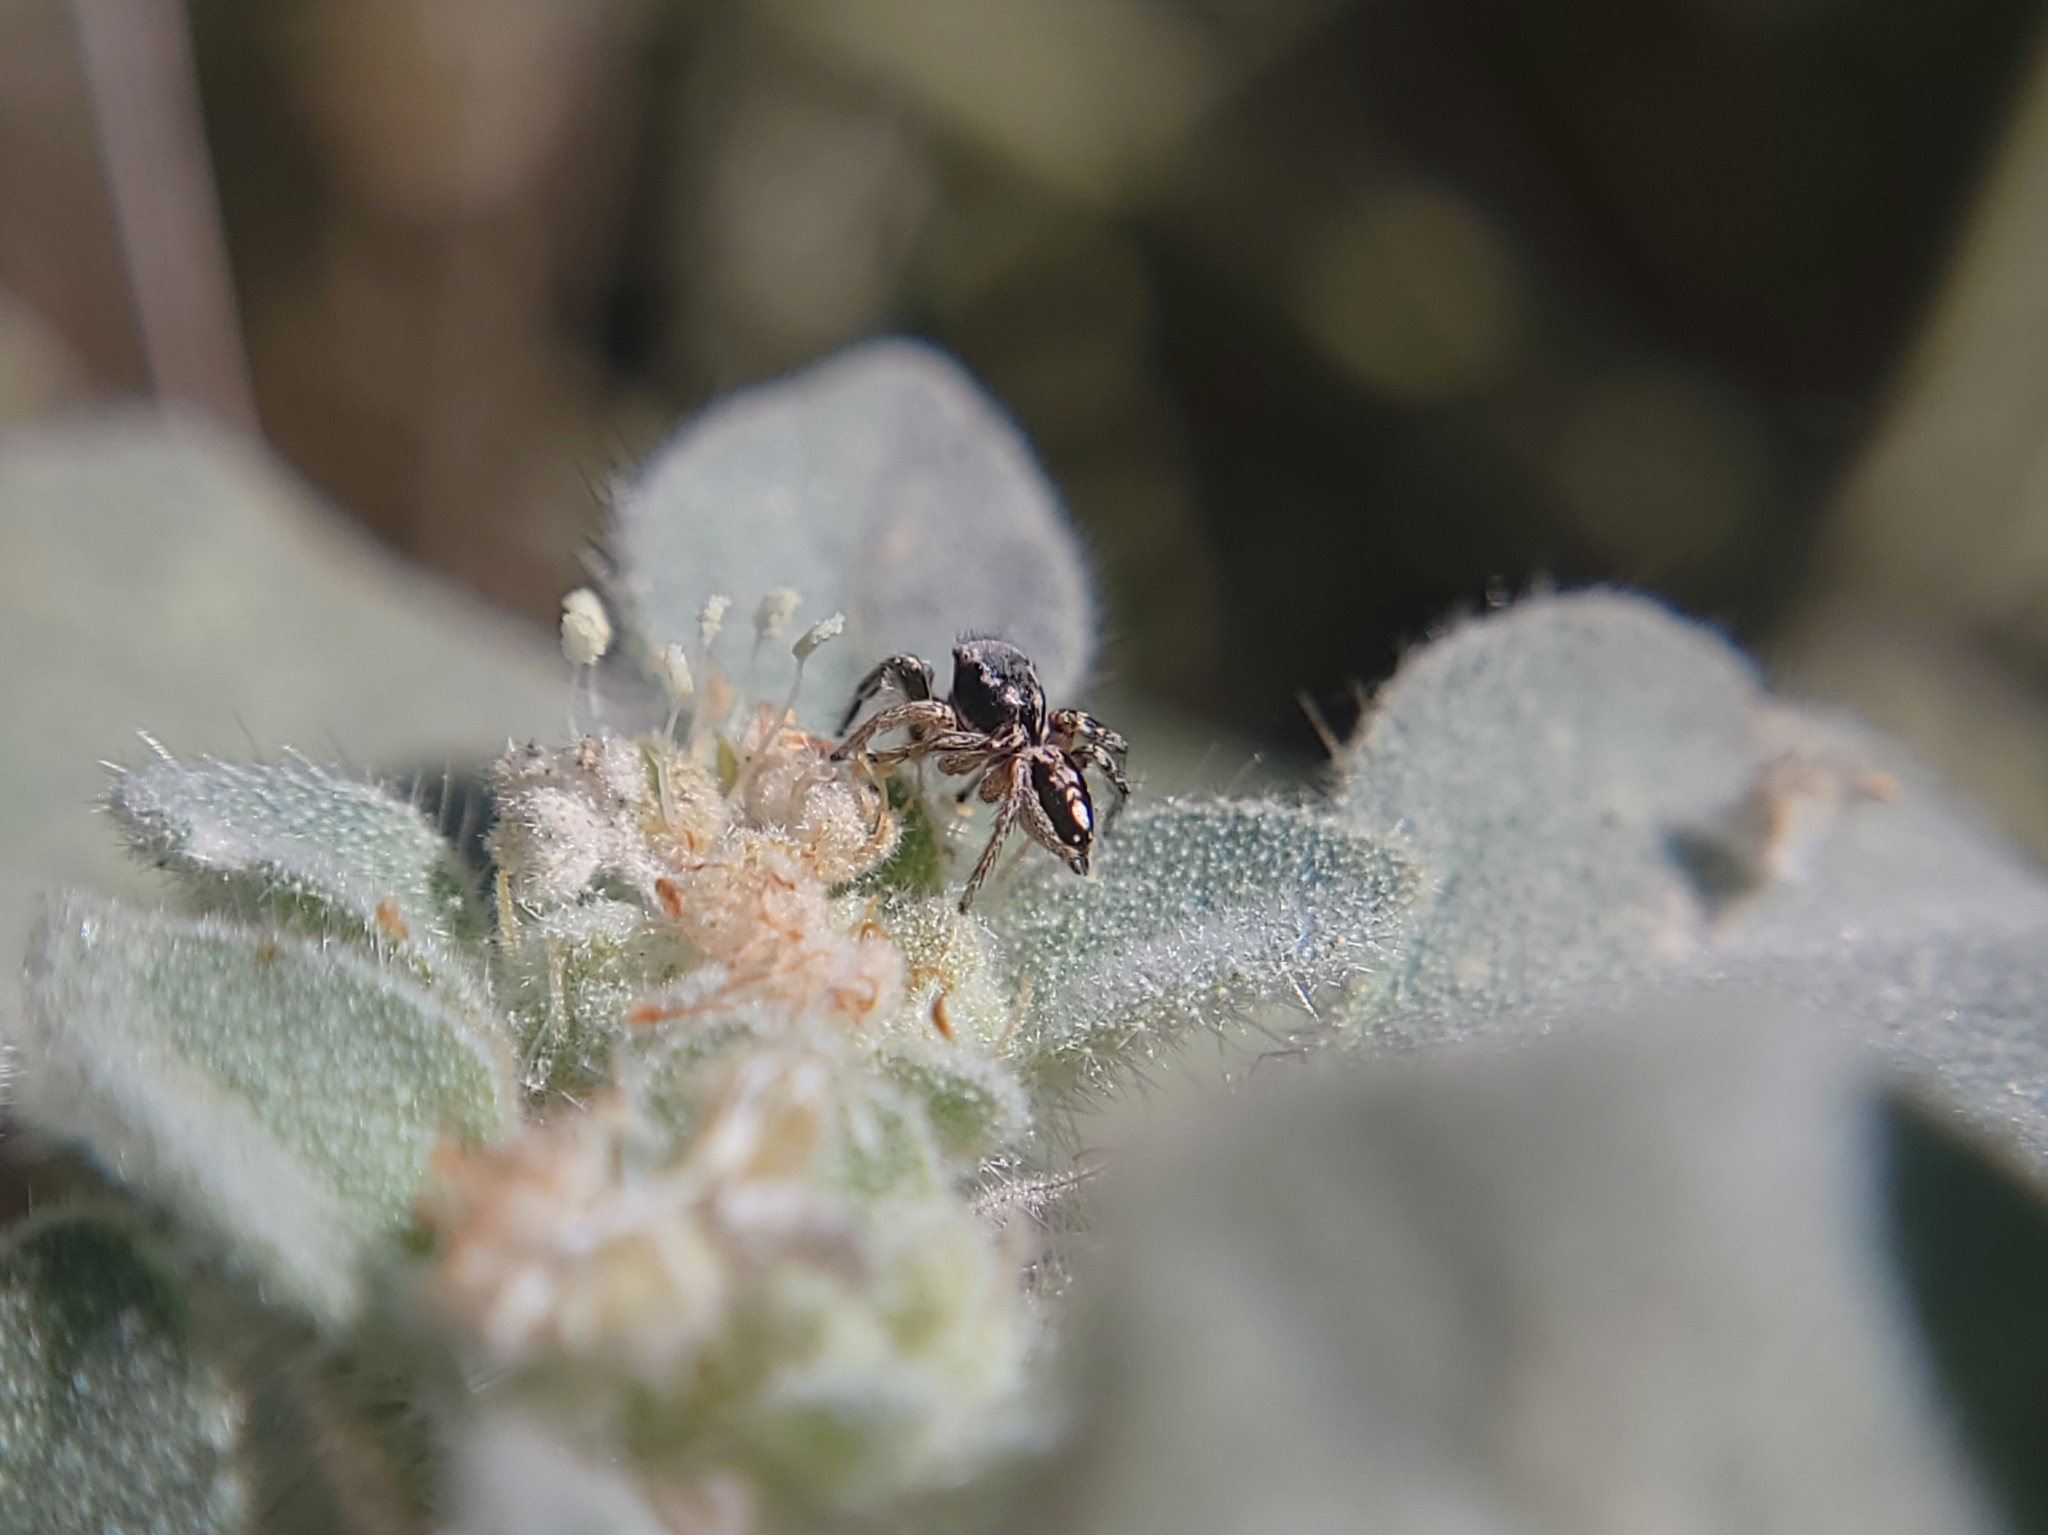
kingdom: Animalia
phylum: Arthropoda
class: Arachnida
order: Araneae
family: Salticidae
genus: Habronattus
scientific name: Habronattus pyrrithrix
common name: Jumping spider
